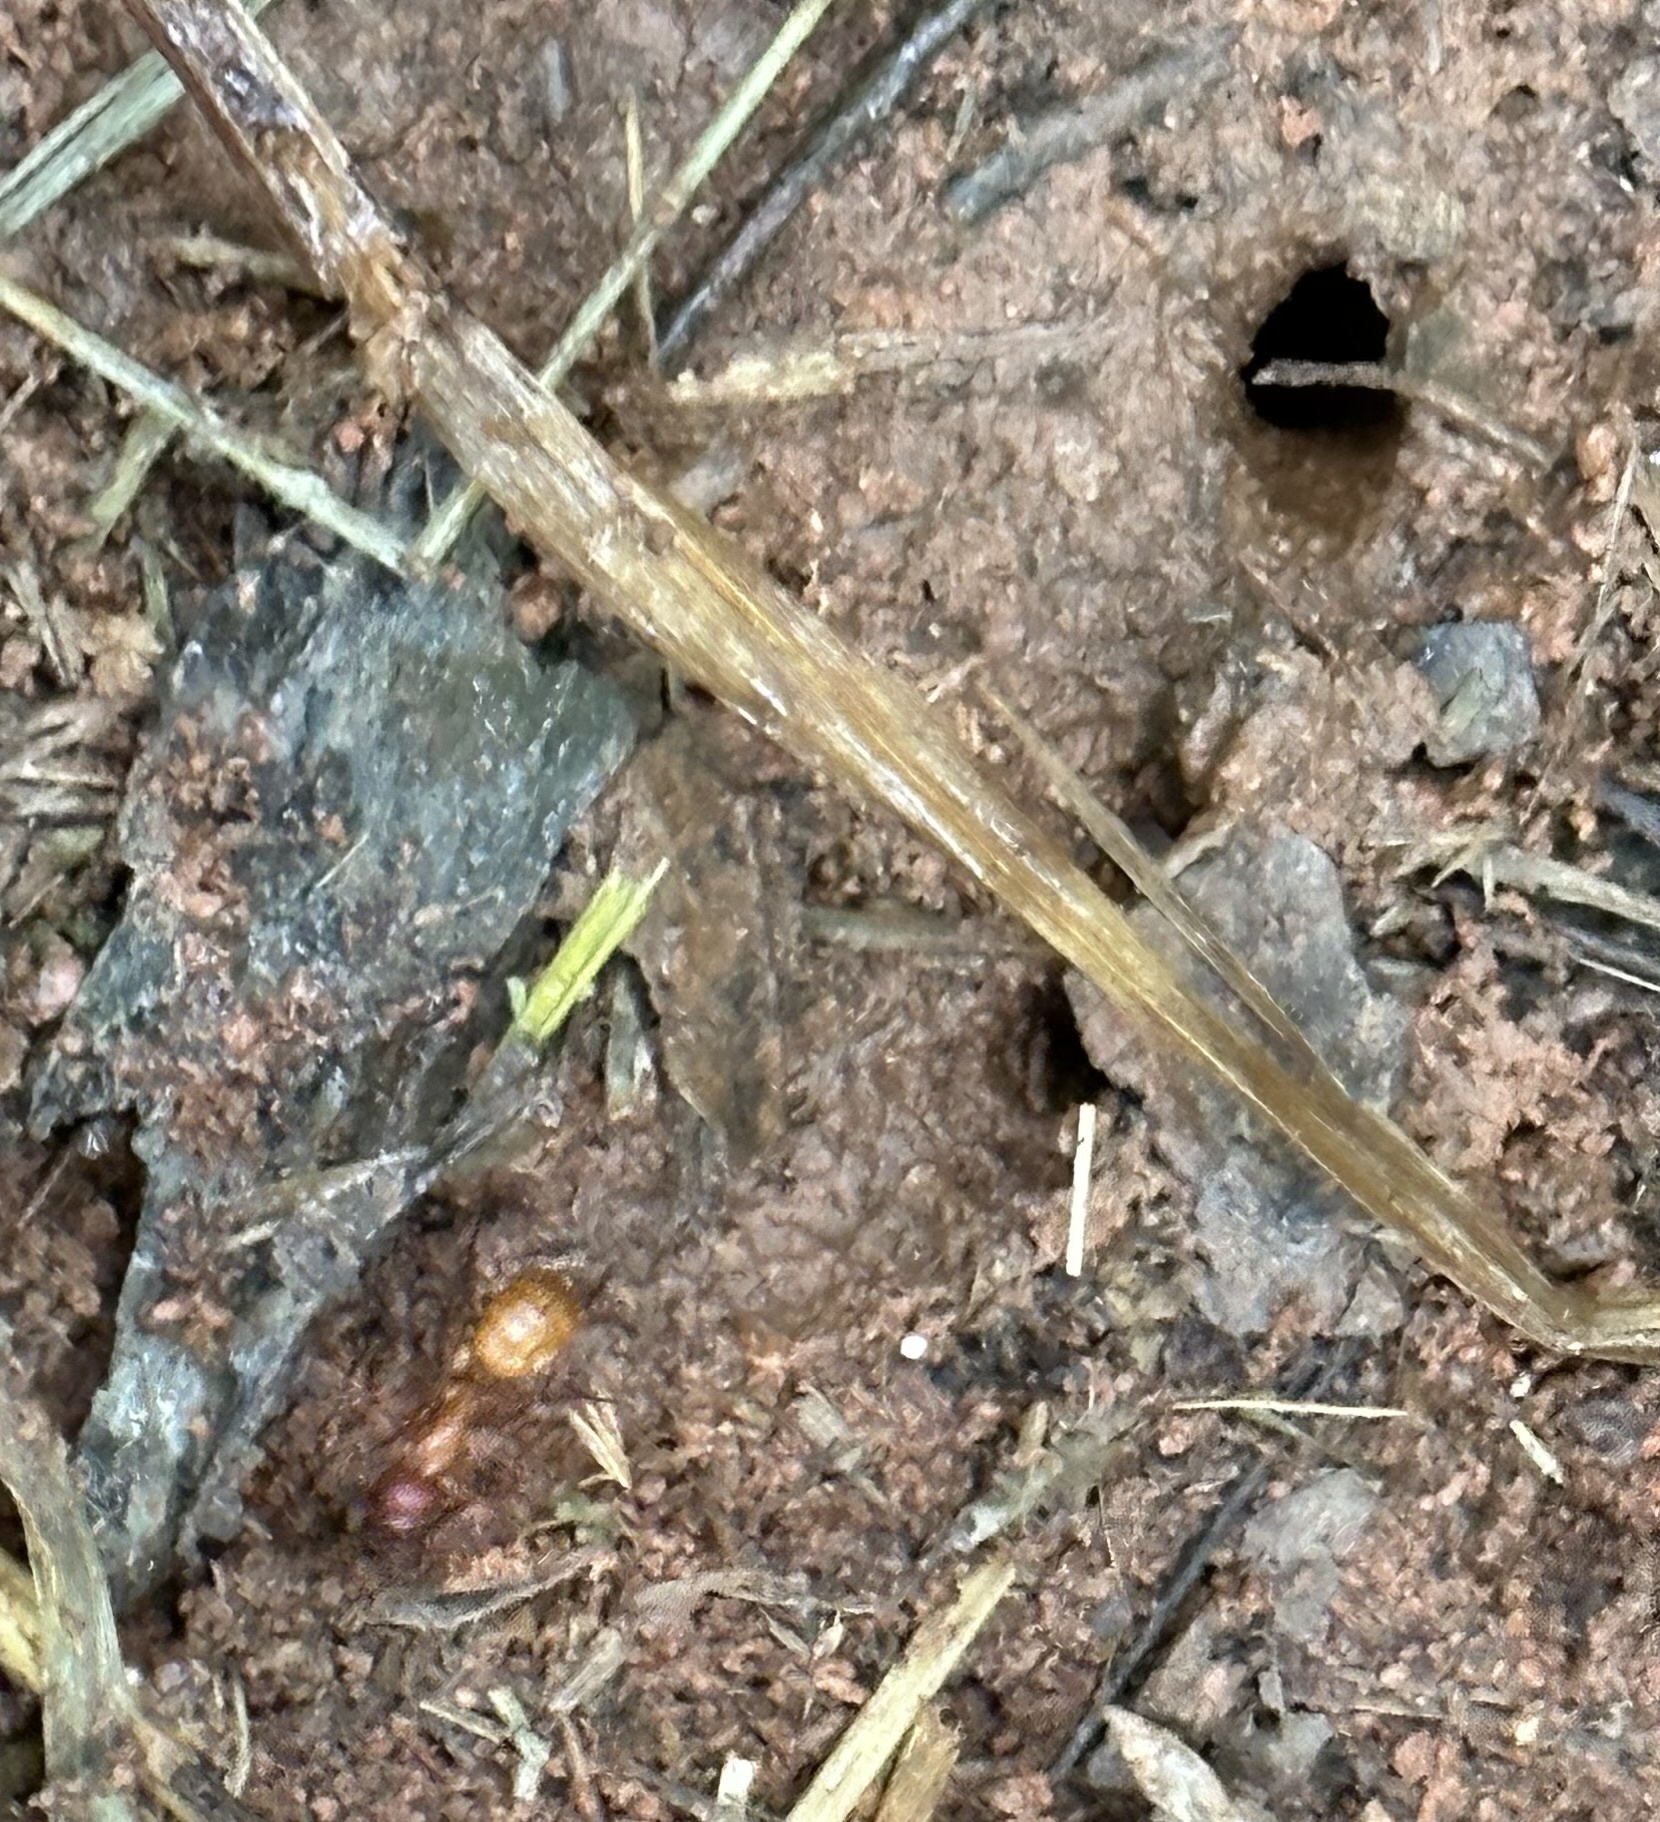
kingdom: Animalia
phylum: Arthropoda
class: Insecta
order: Hymenoptera
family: Formicidae
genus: Camponotus
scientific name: Camponotus castaneus
